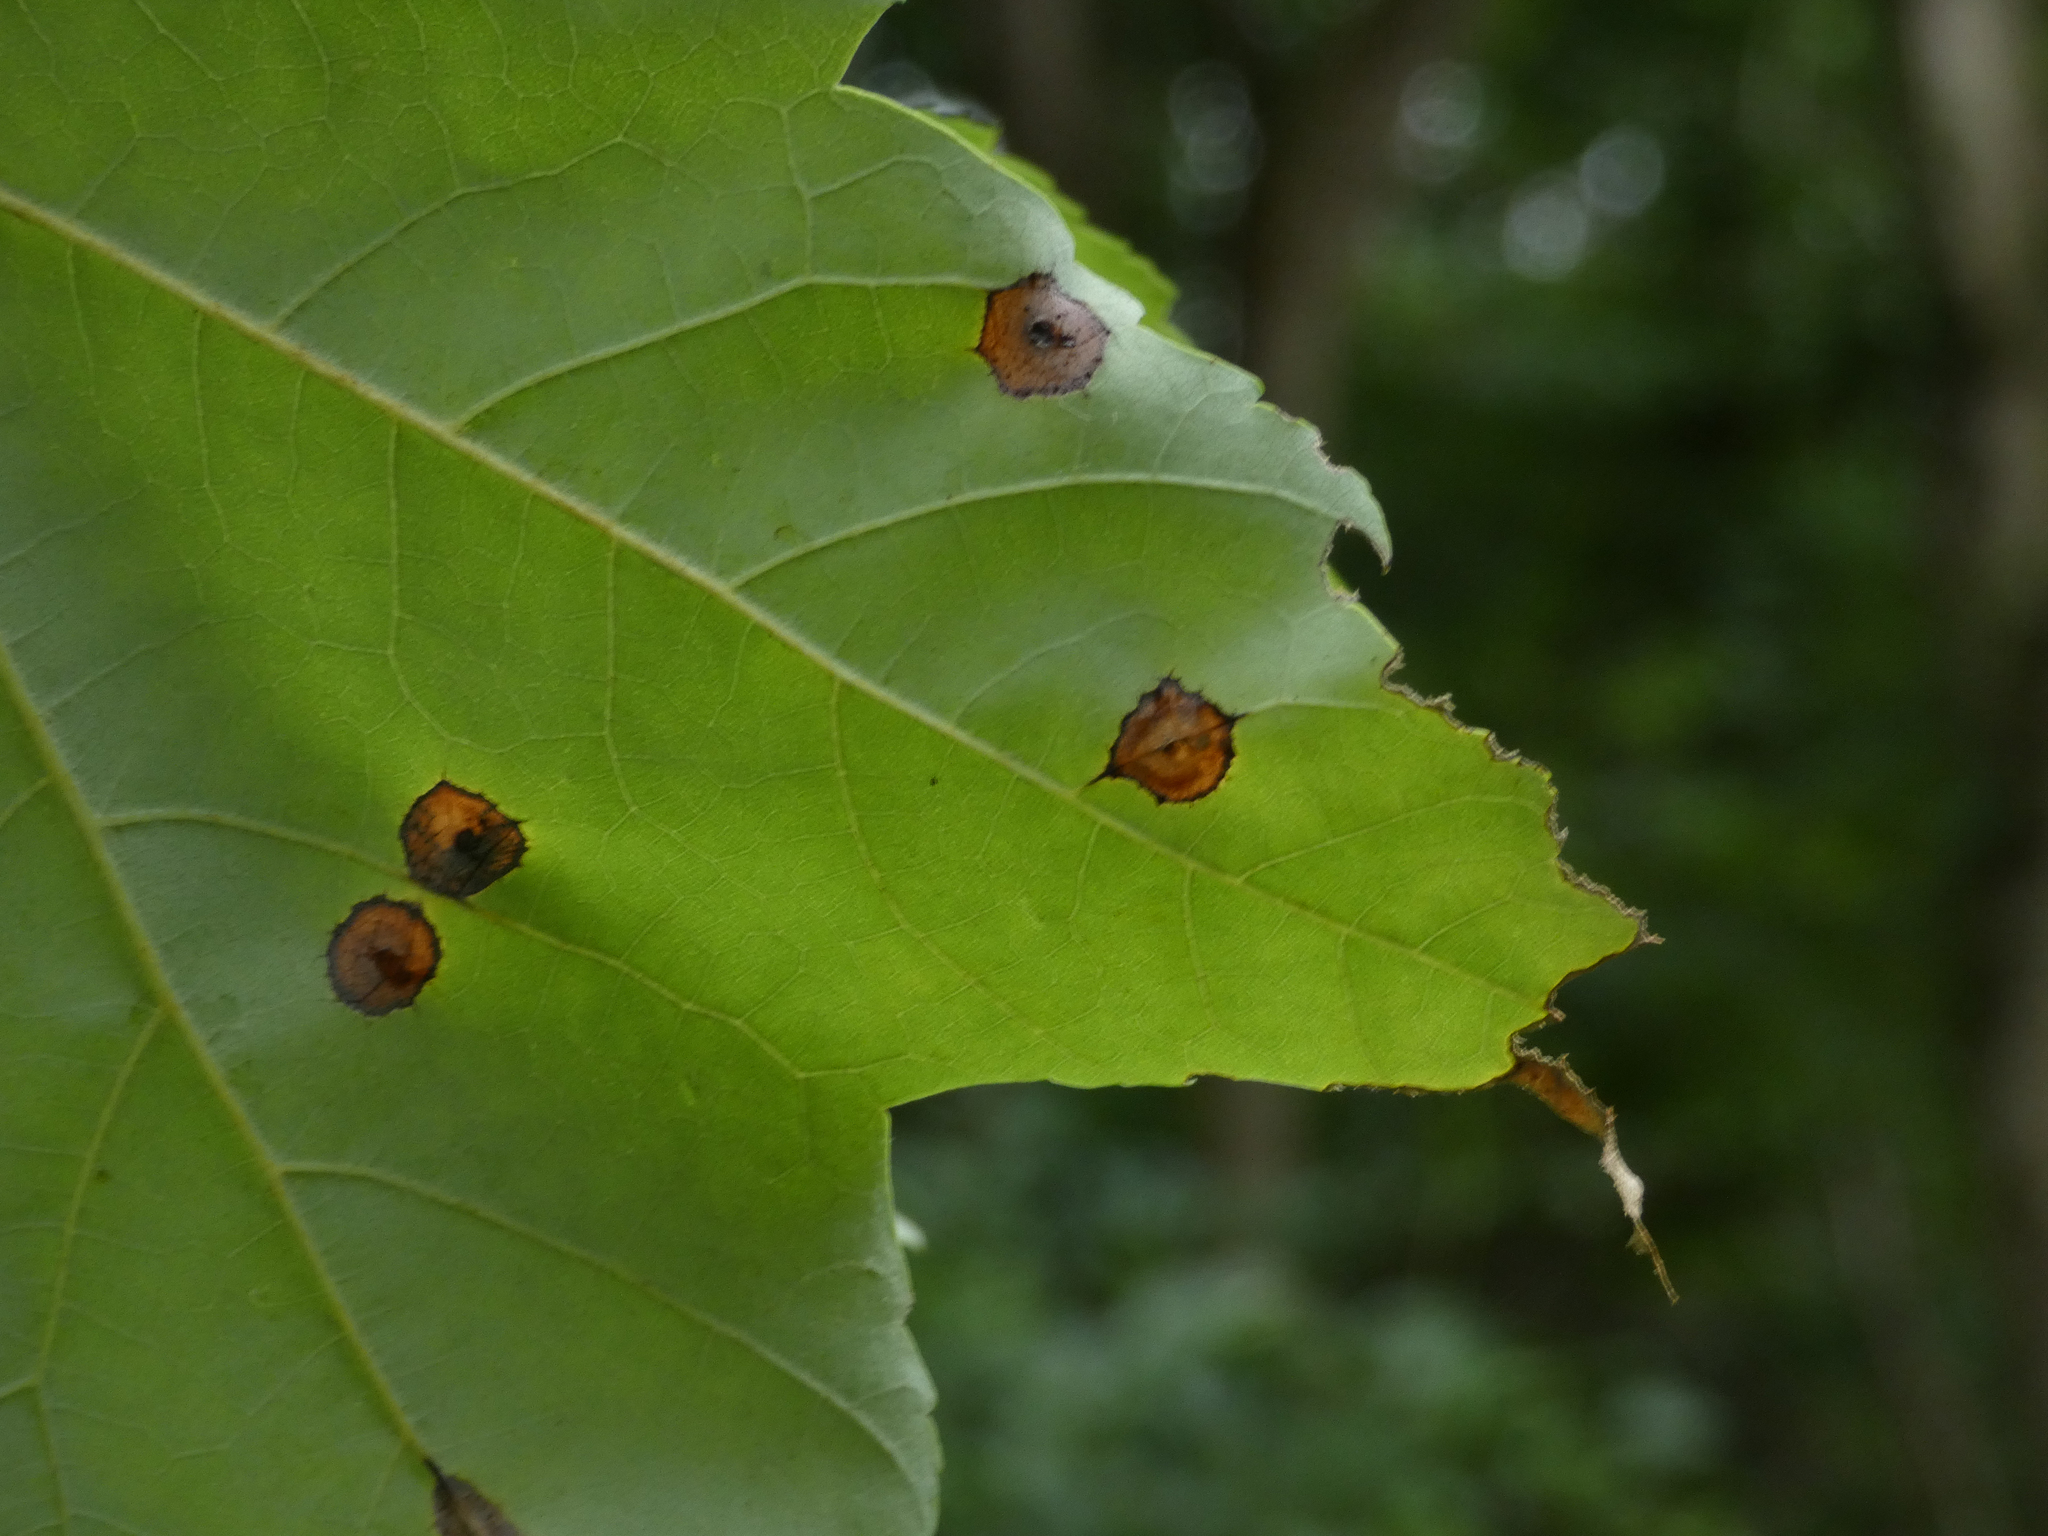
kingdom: Animalia
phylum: Arthropoda
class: Insecta
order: Diptera
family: Cecidomyiidae
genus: Acericecis
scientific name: Acericecis ocellaris
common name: Ocellate gall midge
